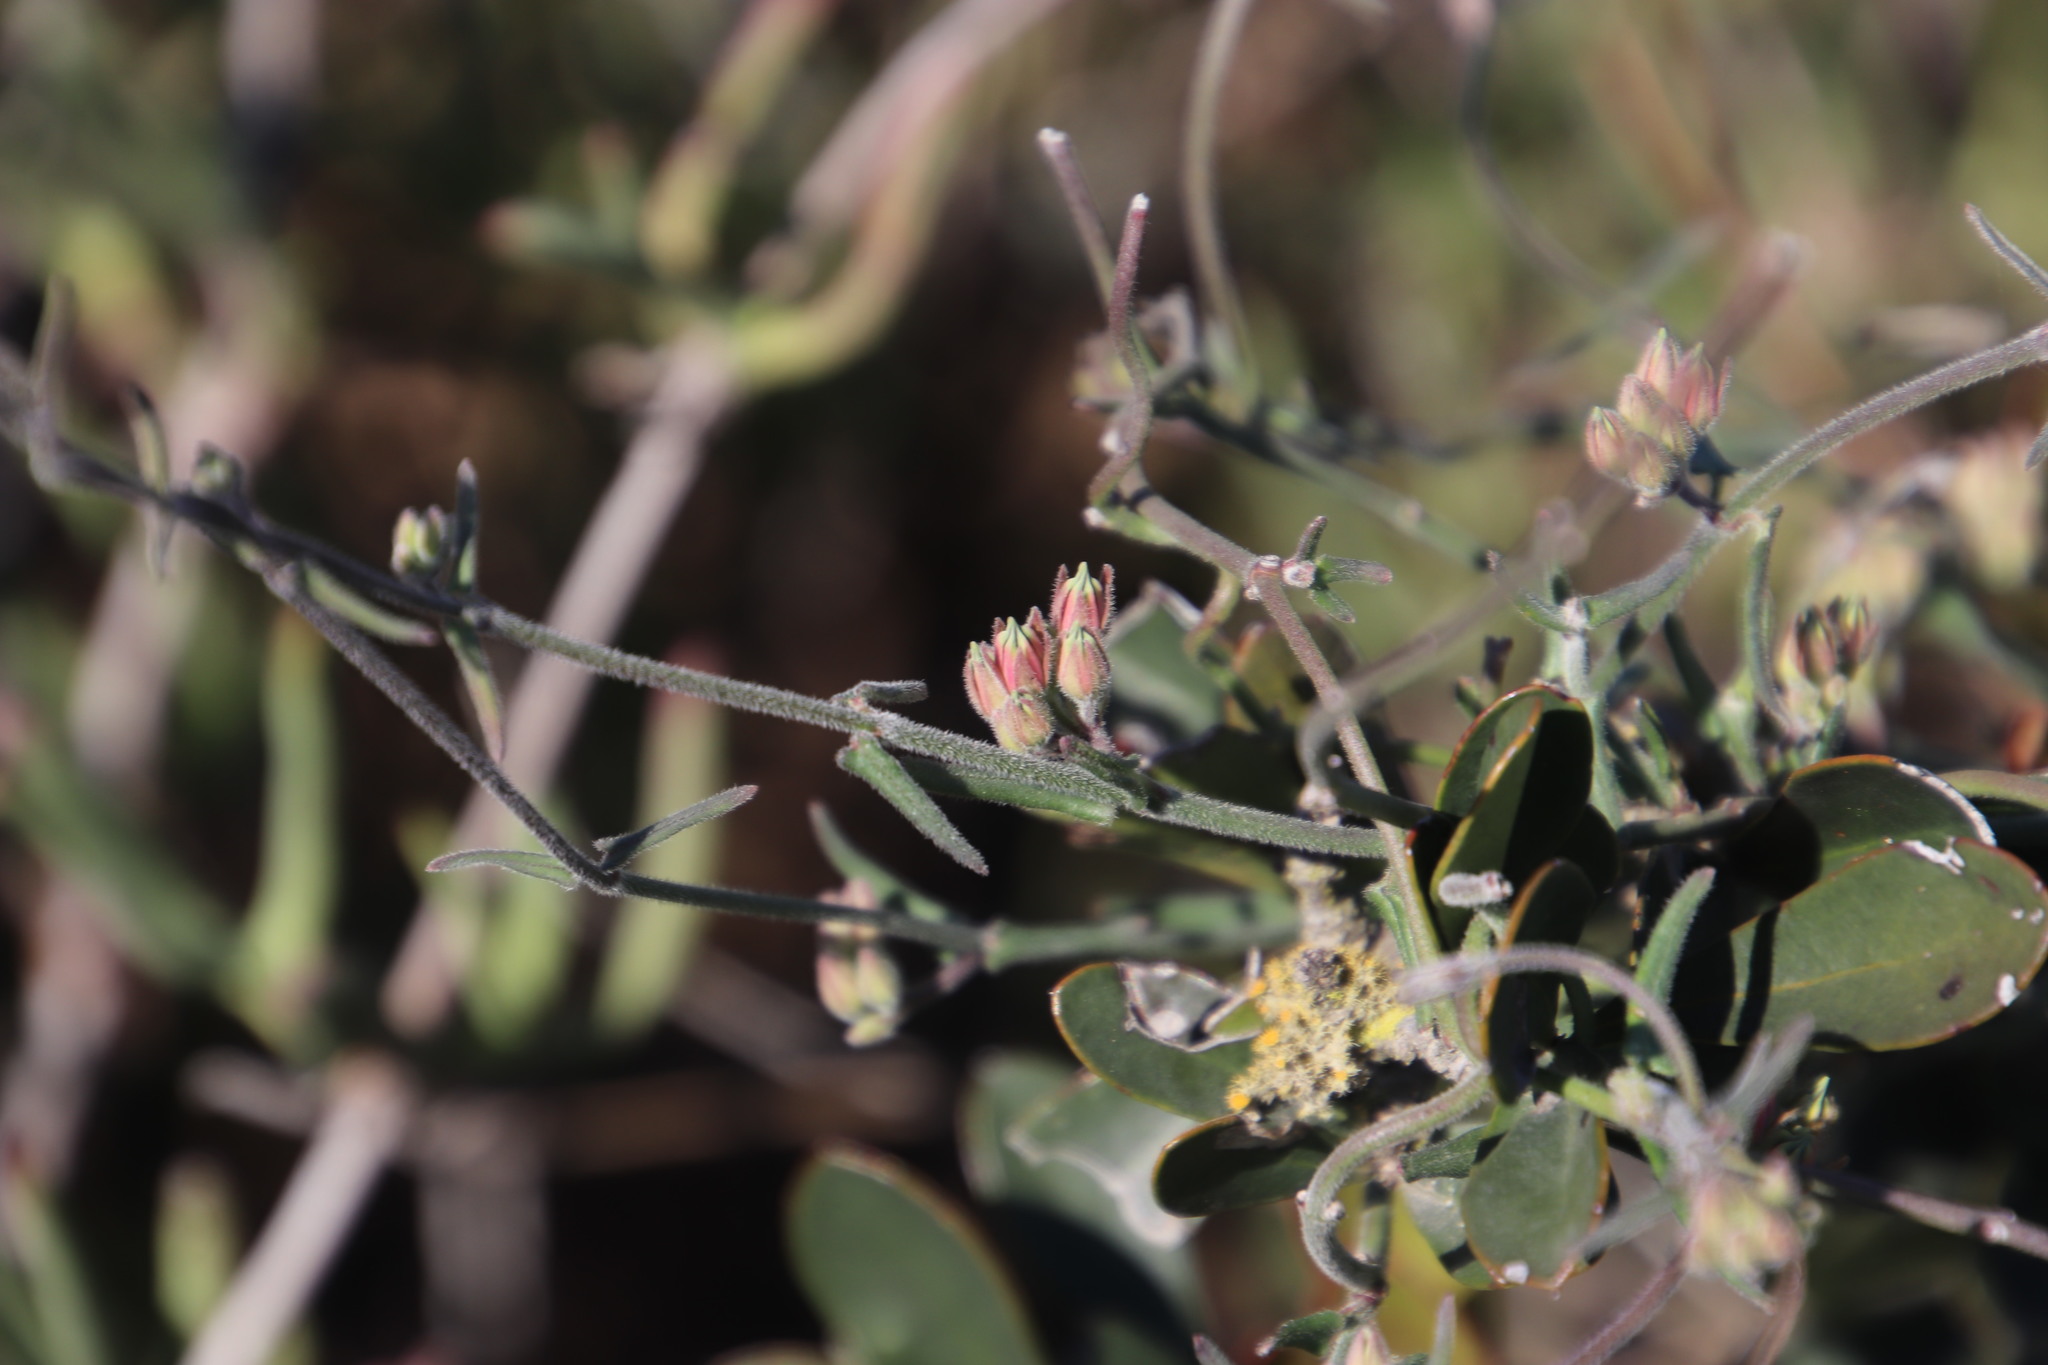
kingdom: Plantae
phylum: Tracheophyta
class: Magnoliopsida
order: Gentianales
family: Apocynaceae
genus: Microloma
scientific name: Microloma sagittatum
